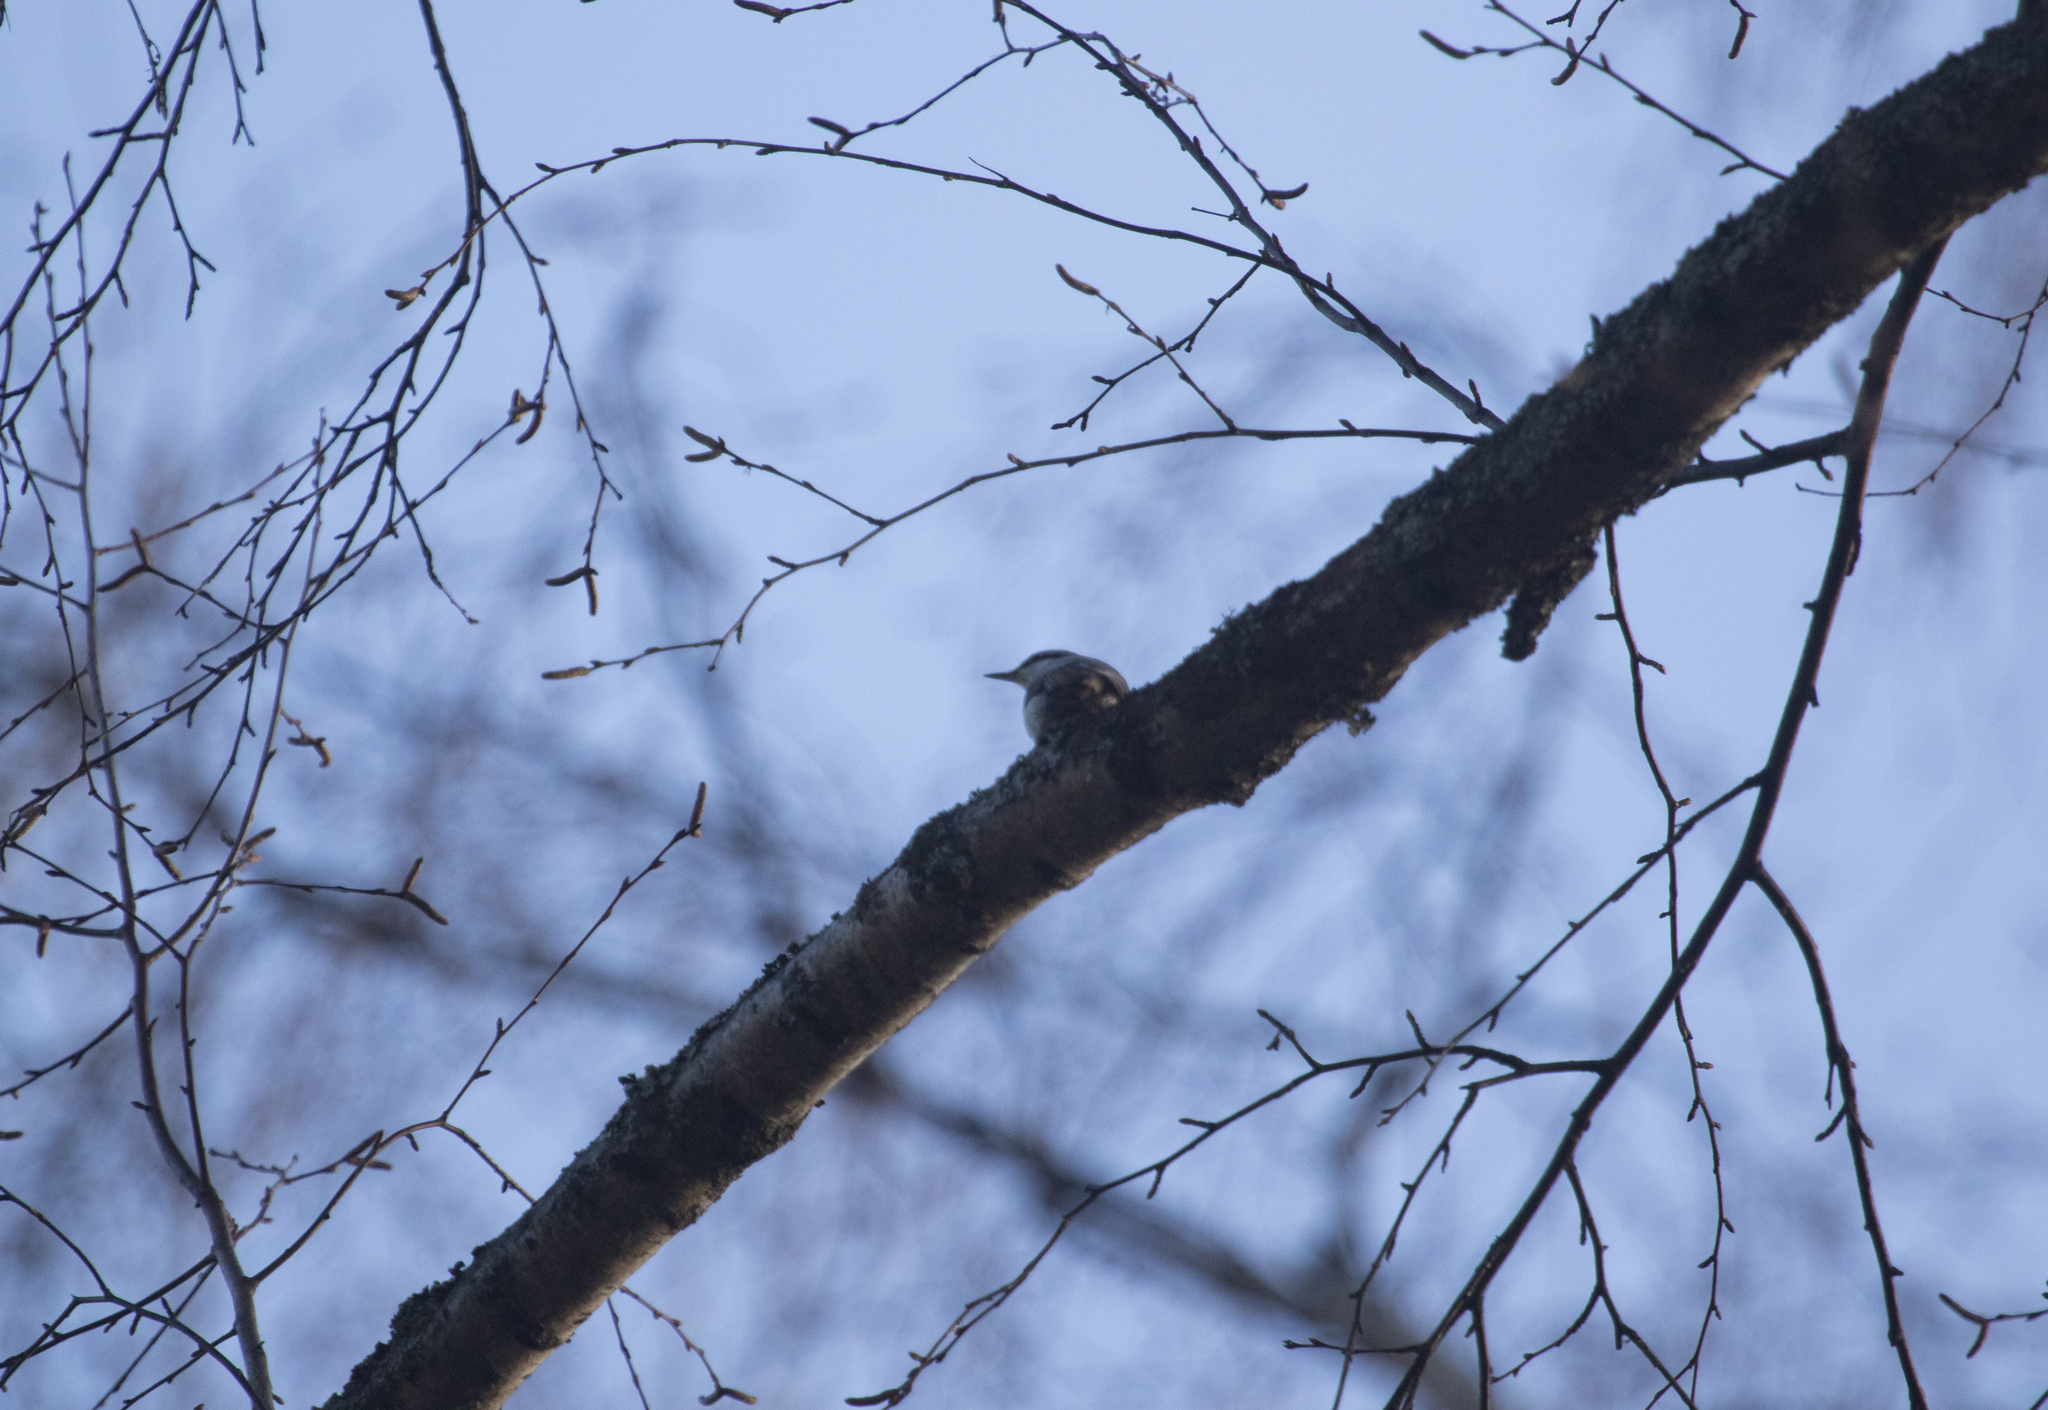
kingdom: Animalia
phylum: Chordata
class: Aves
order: Passeriformes
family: Sittidae
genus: Sitta
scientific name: Sitta europaea
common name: Eurasian nuthatch
